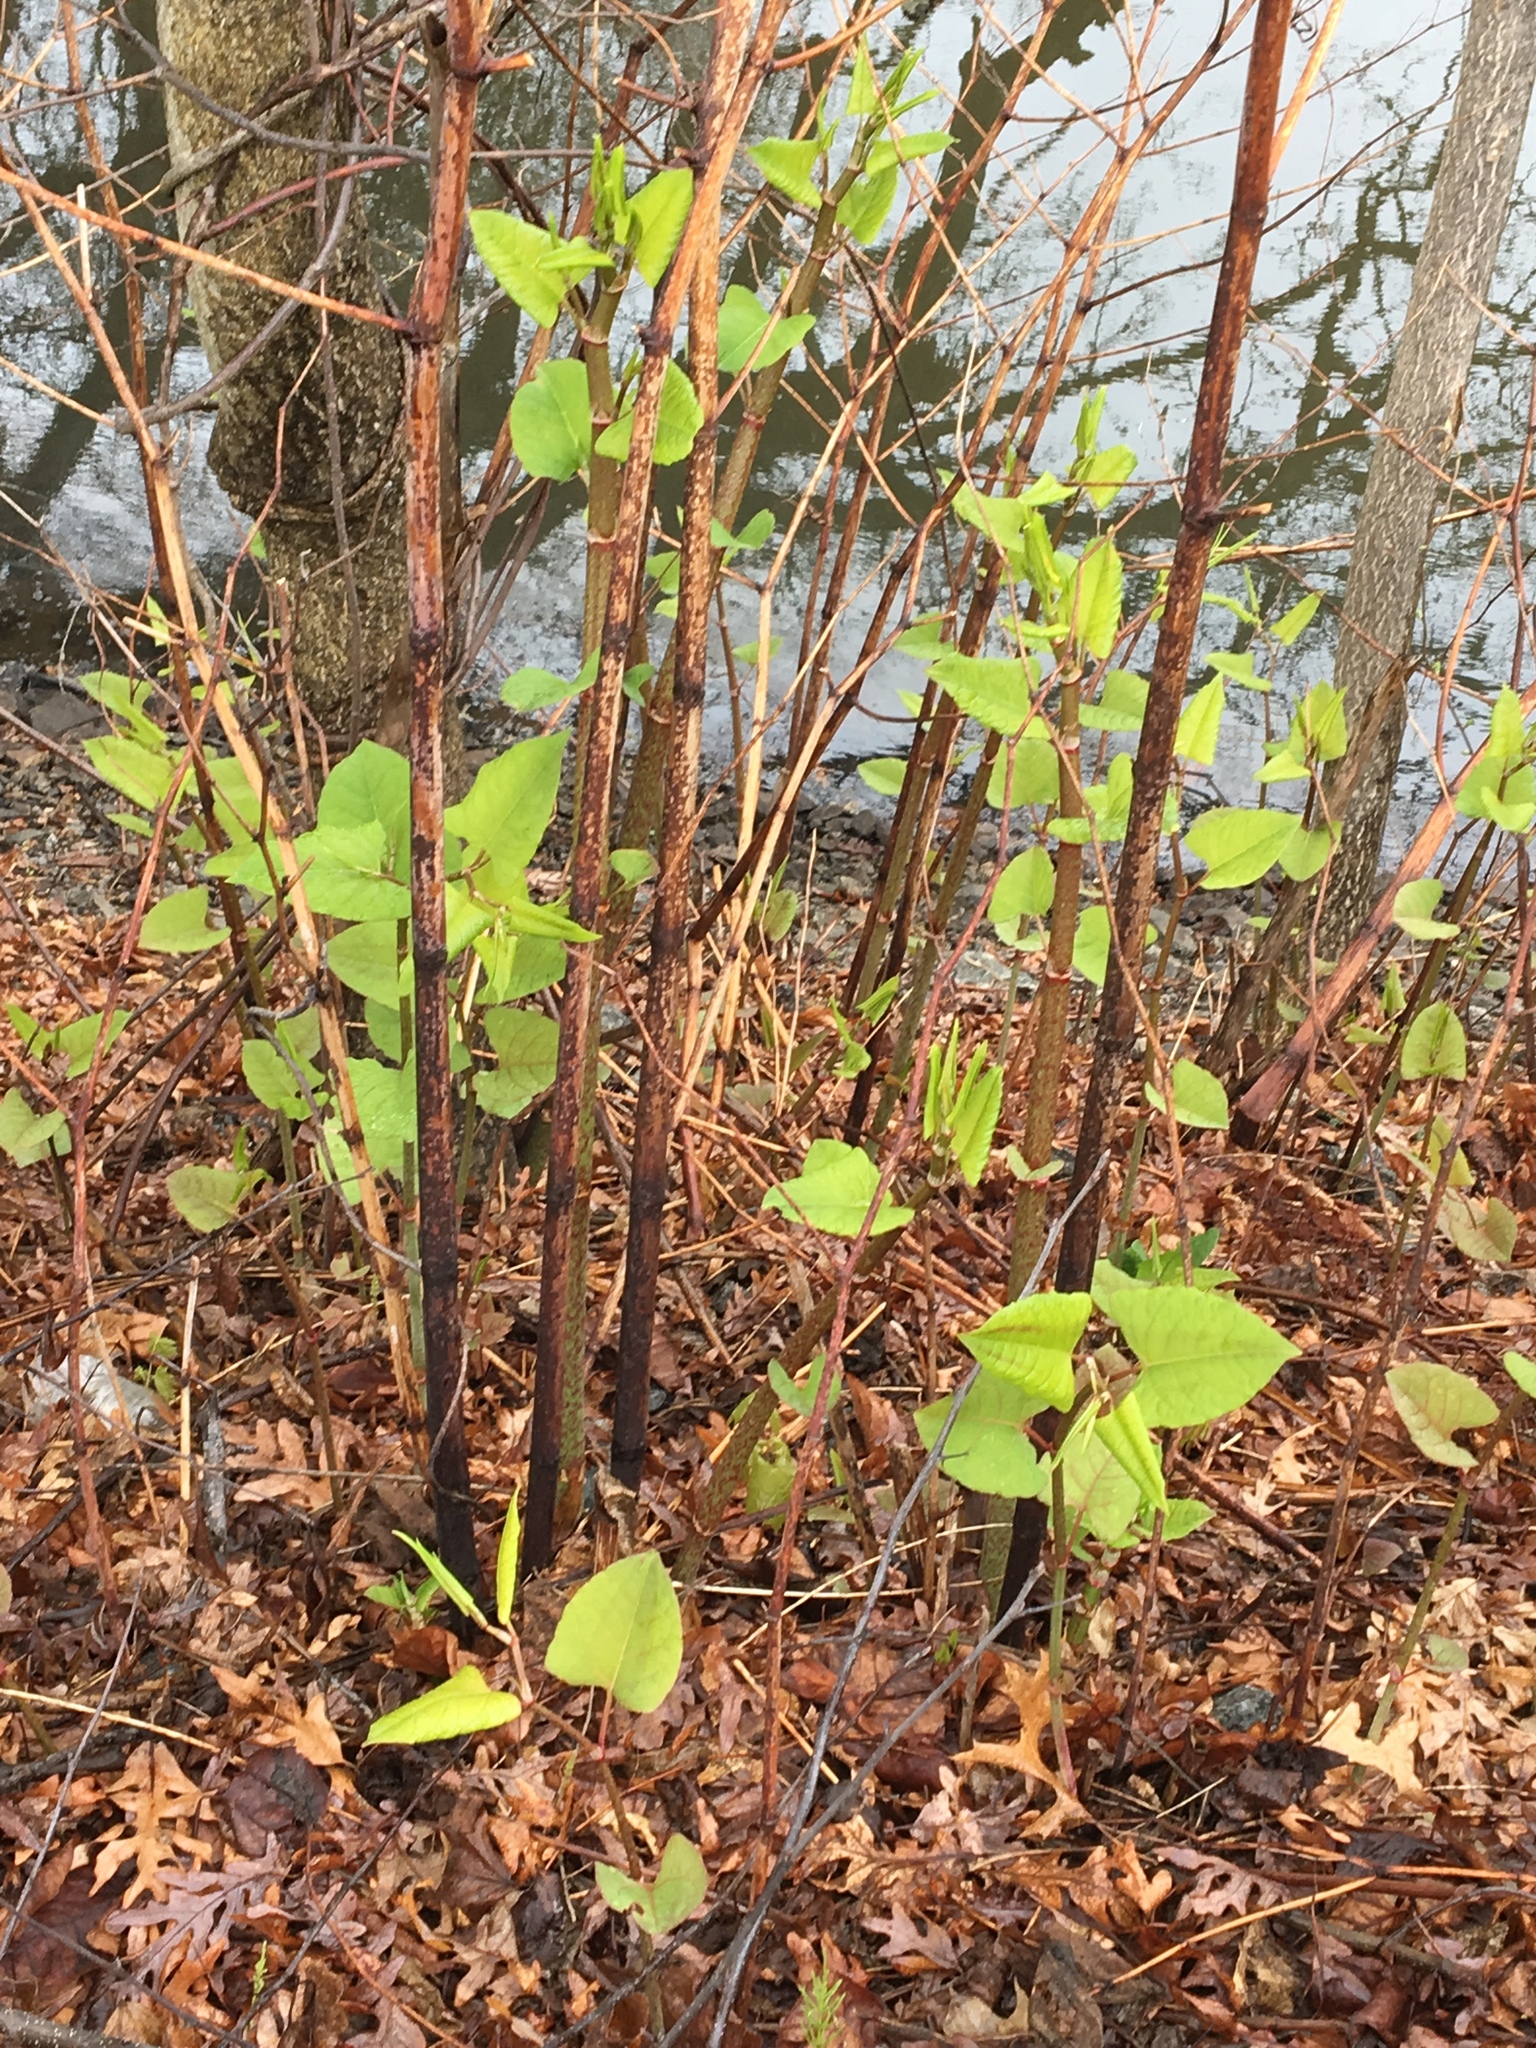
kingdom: Plantae
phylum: Tracheophyta
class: Magnoliopsida
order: Caryophyllales
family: Polygonaceae
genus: Reynoutria
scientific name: Reynoutria japonica
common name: Japanese knotweed
